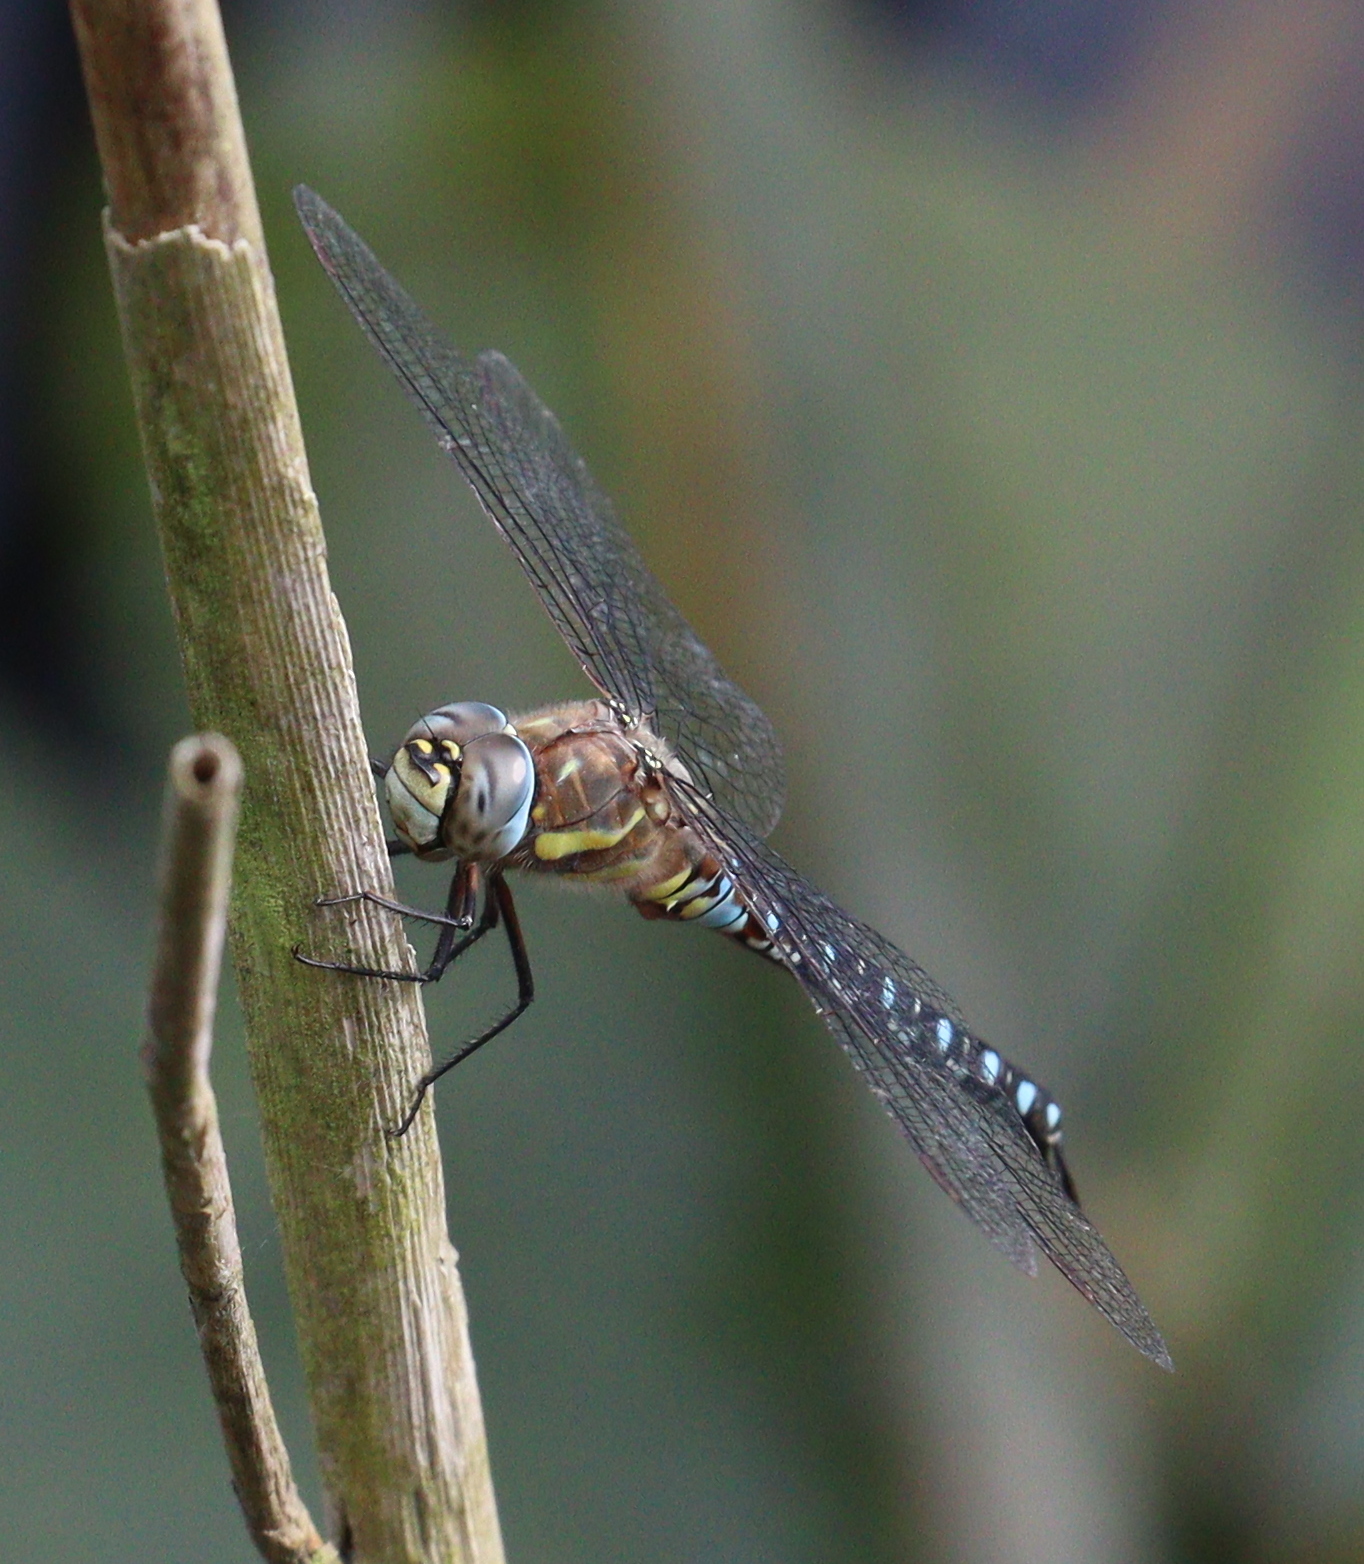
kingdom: Animalia
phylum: Arthropoda
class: Insecta
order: Odonata
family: Aeshnidae
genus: Aeshna
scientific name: Aeshna mixta
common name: Migrant hawker
